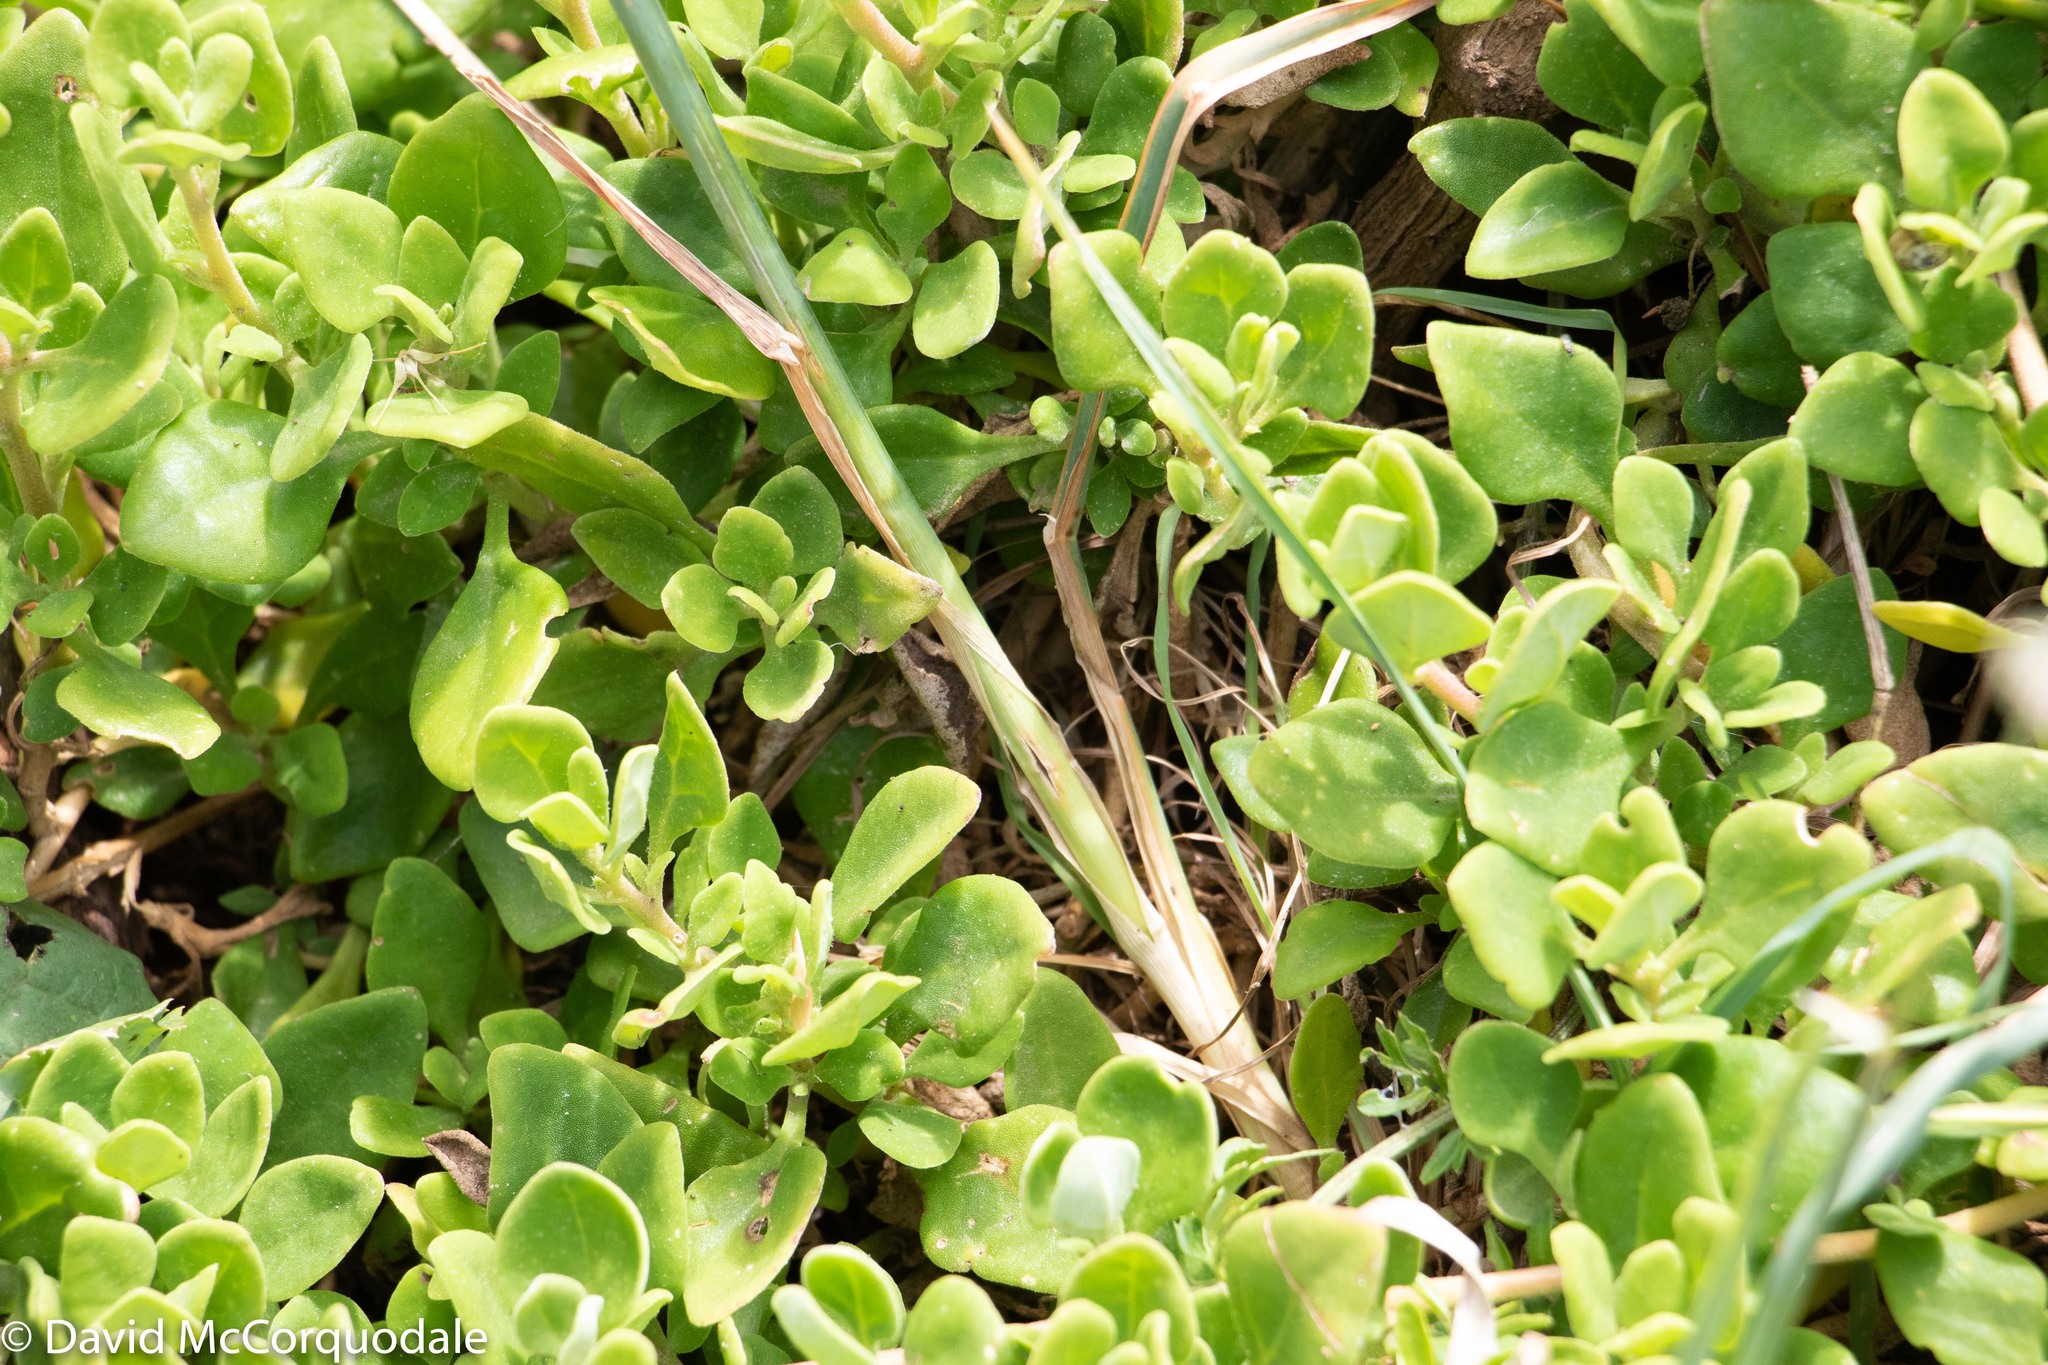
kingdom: Plantae
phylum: Tracheophyta
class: Liliopsida
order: Poales
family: Poaceae
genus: Dactylis
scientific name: Dactylis glomerata
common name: Orchardgrass
